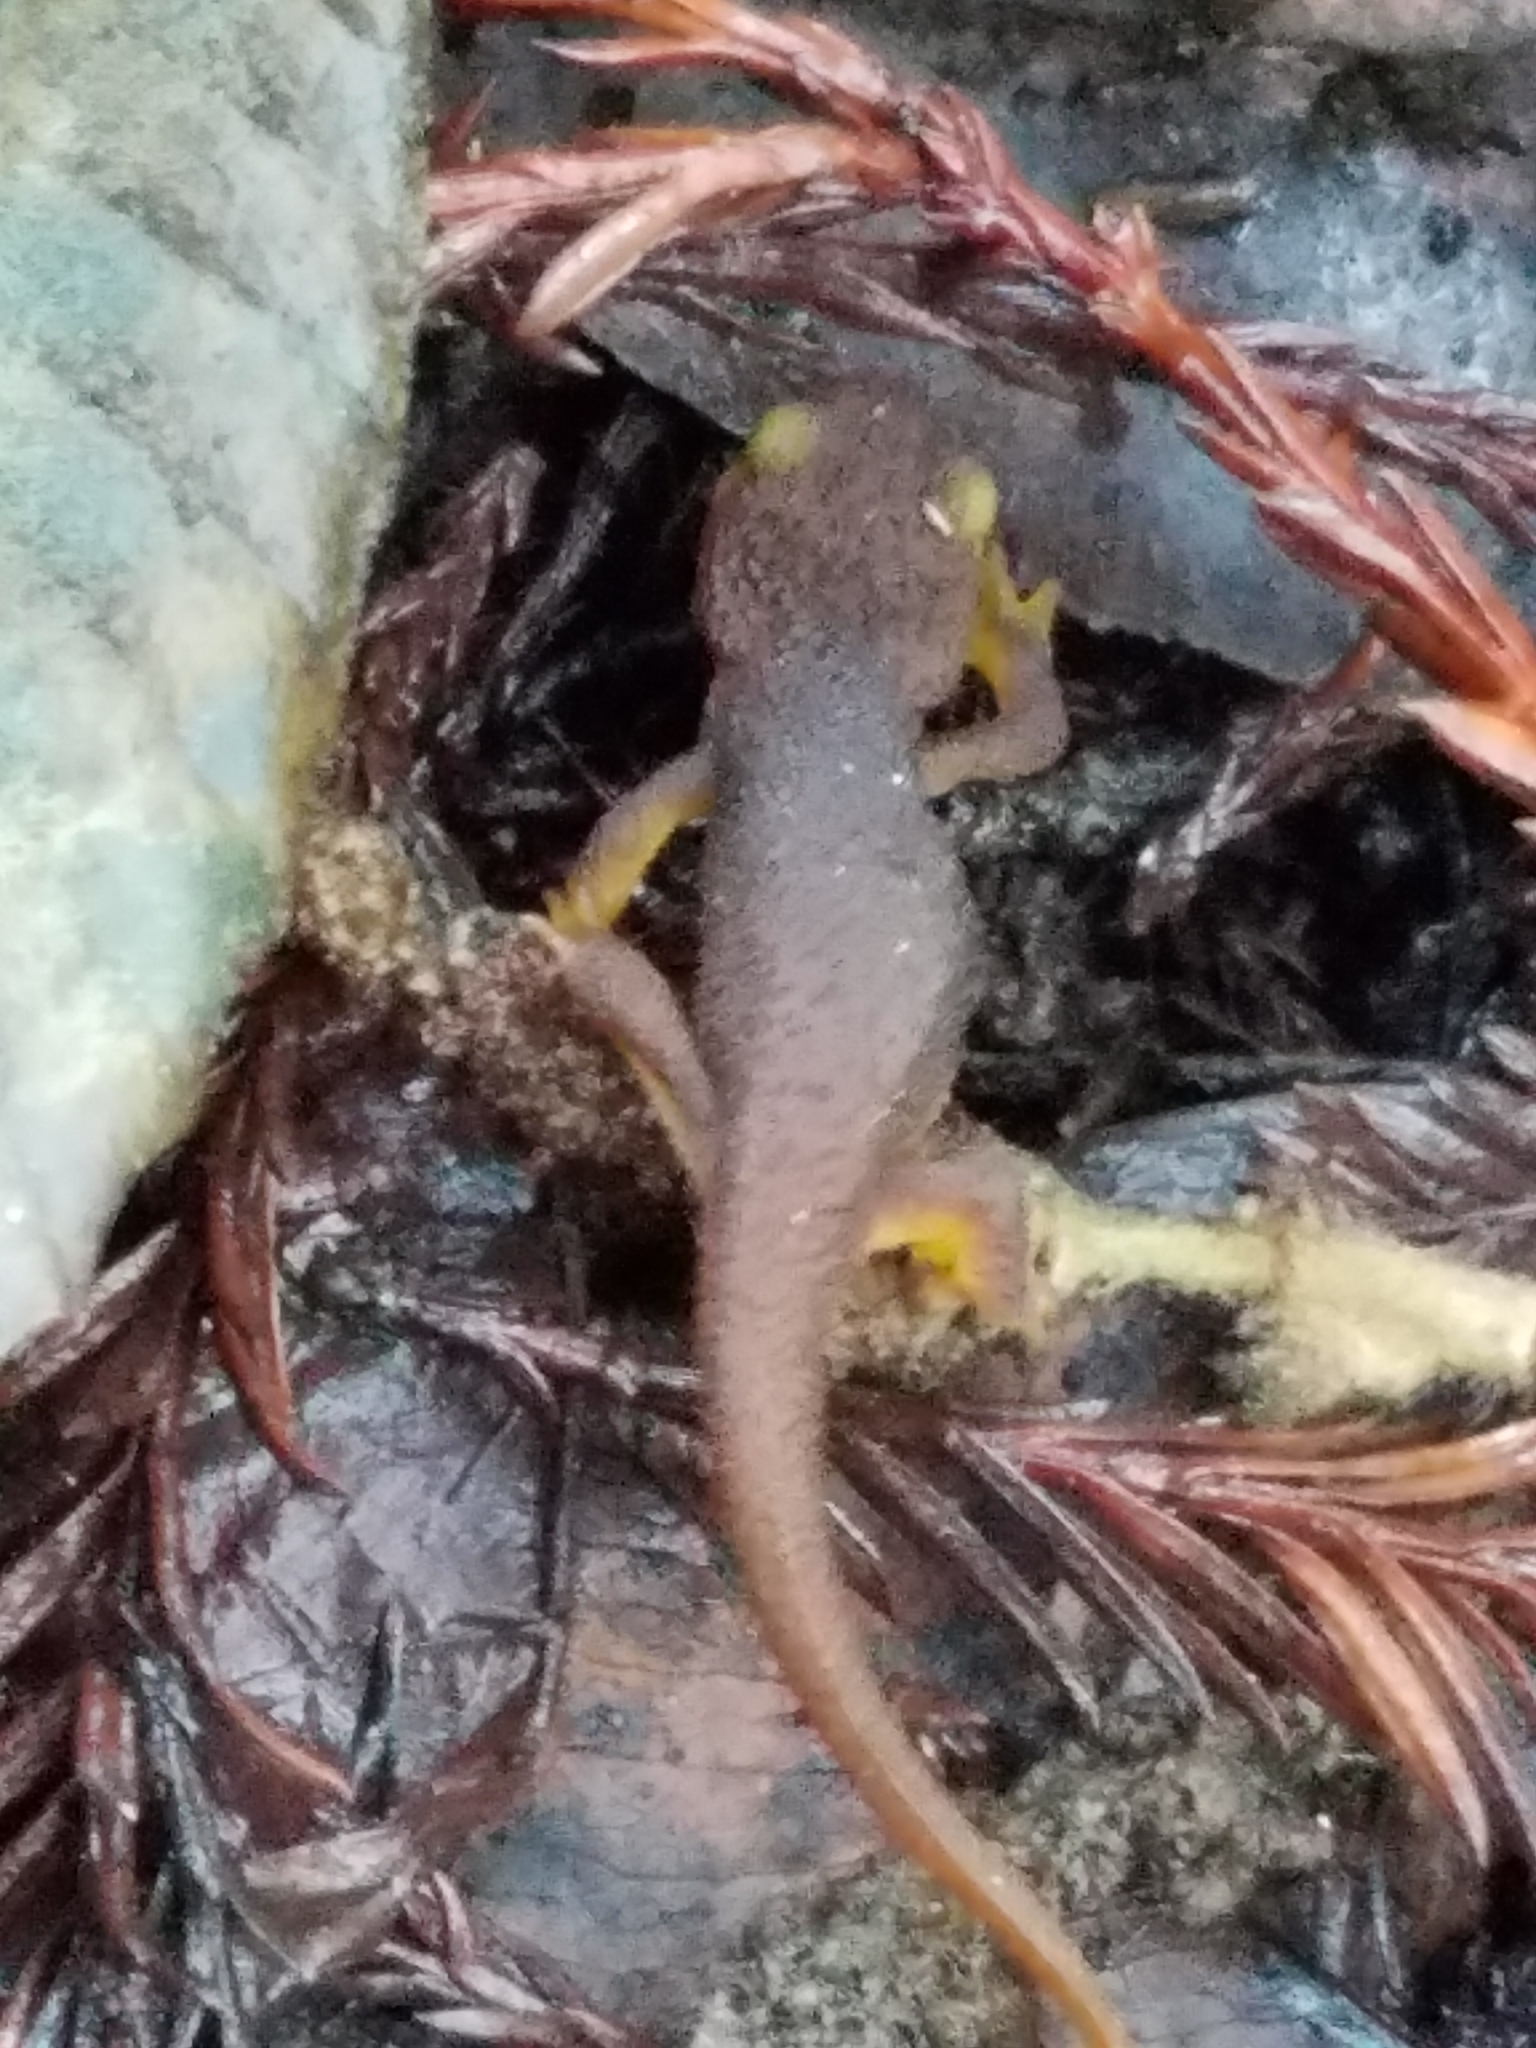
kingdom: Animalia
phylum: Chordata
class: Amphibia
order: Caudata
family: Salamandridae
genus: Taricha
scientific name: Taricha torosa
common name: California newt
